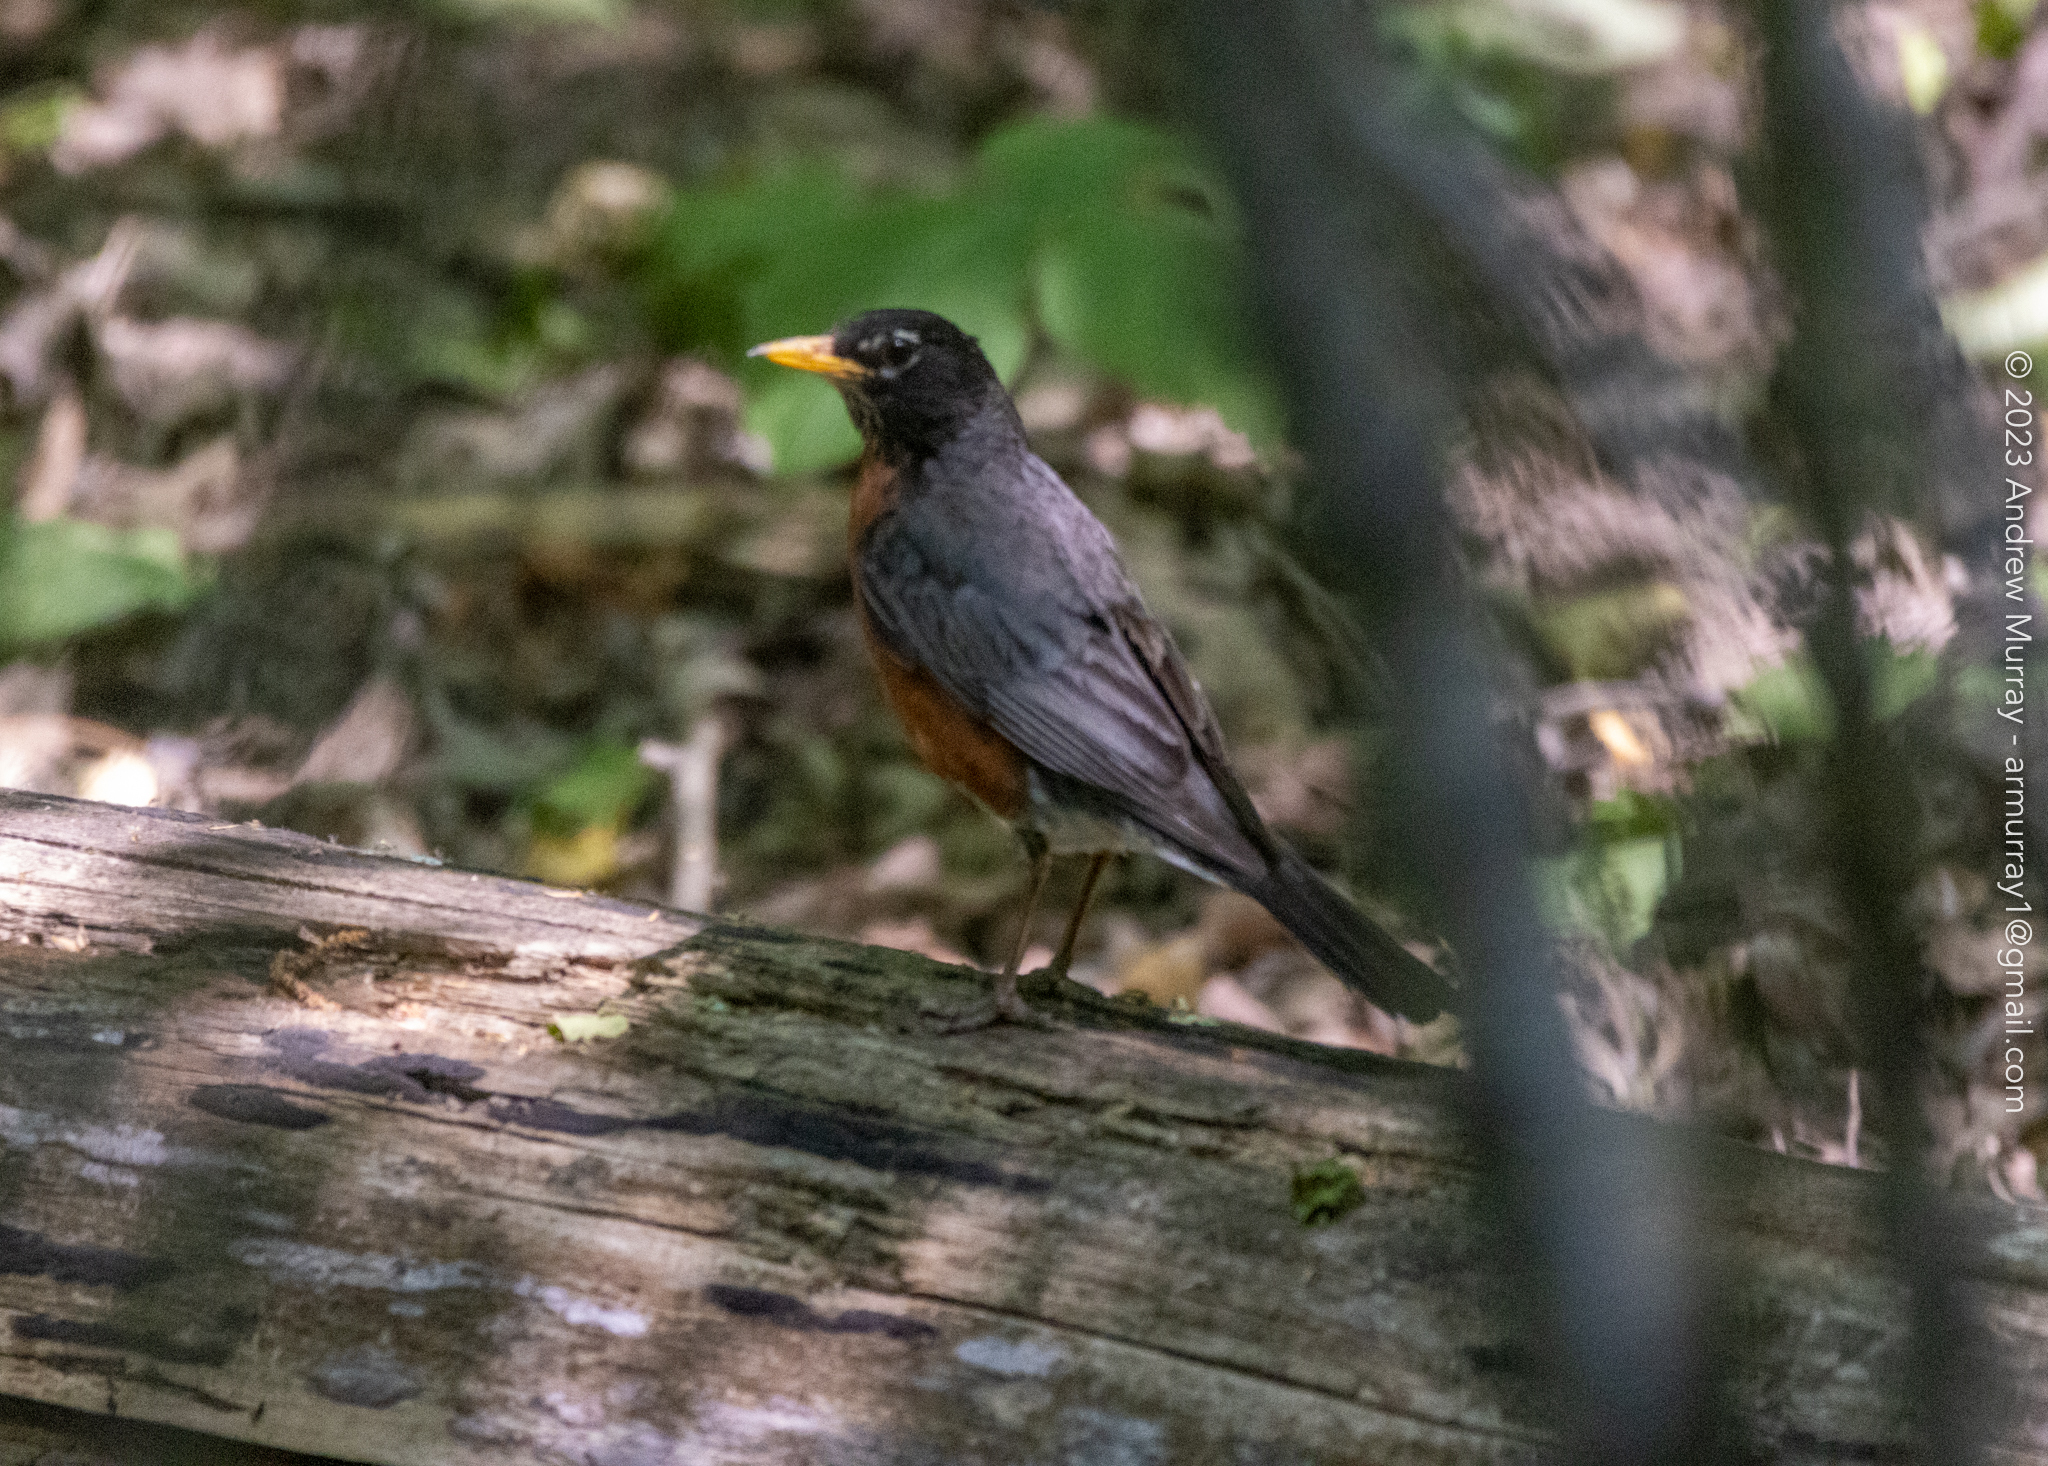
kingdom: Animalia
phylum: Chordata
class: Aves
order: Passeriformes
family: Turdidae
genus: Turdus
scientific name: Turdus migratorius
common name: American robin
